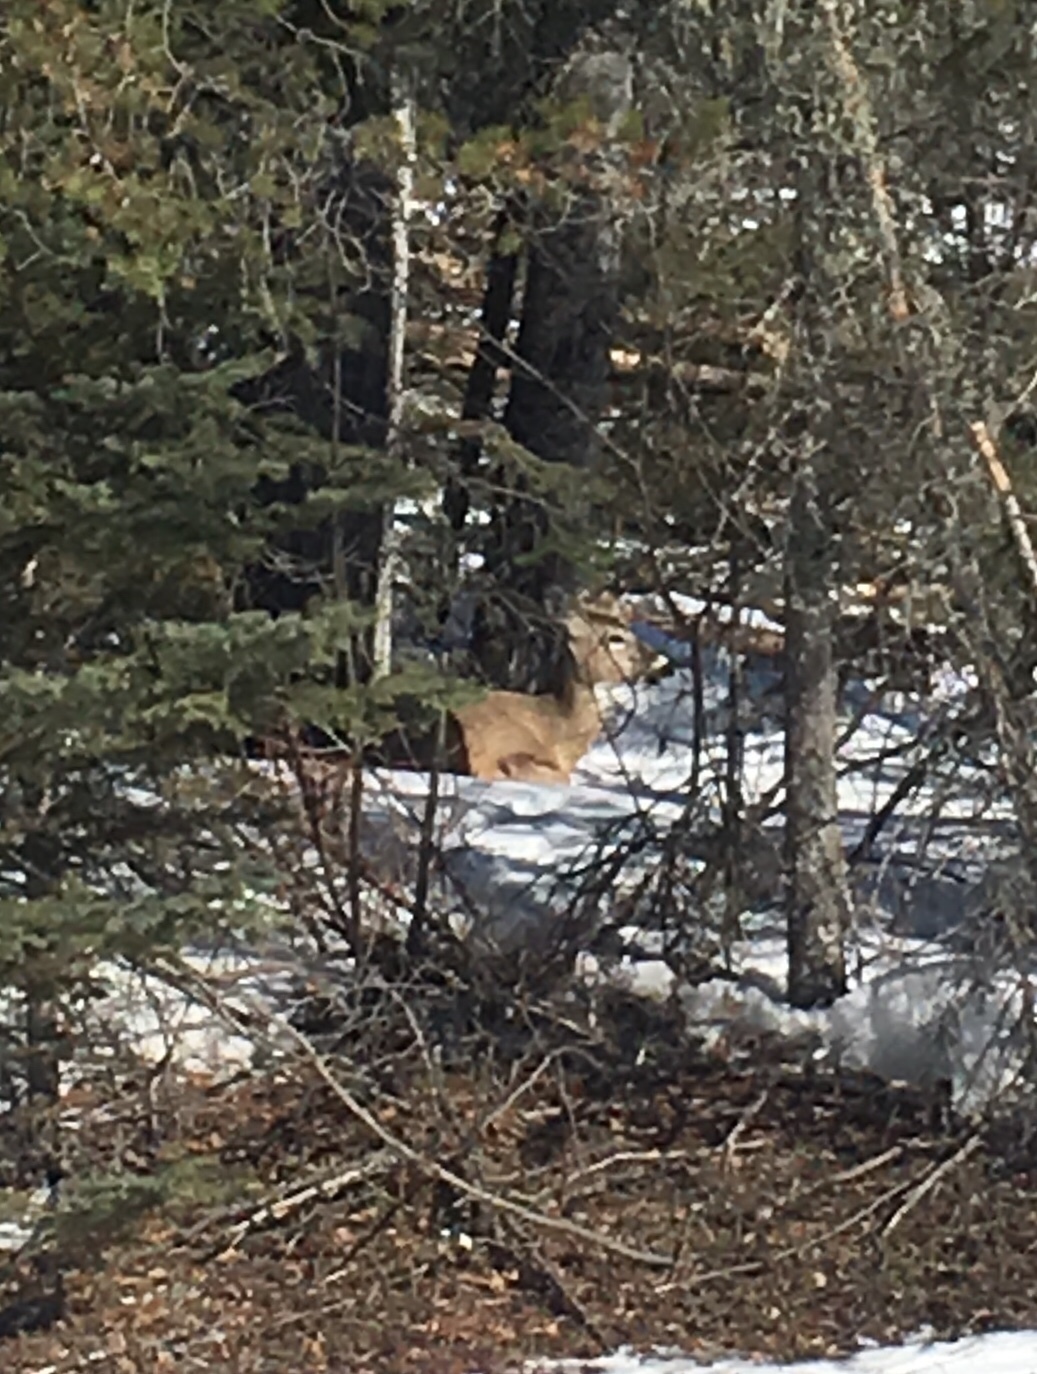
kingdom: Animalia
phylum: Chordata
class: Mammalia
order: Artiodactyla
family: Cervidae
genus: Odocoileus
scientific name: Odocoileus virginianus
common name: White-tailed deer
